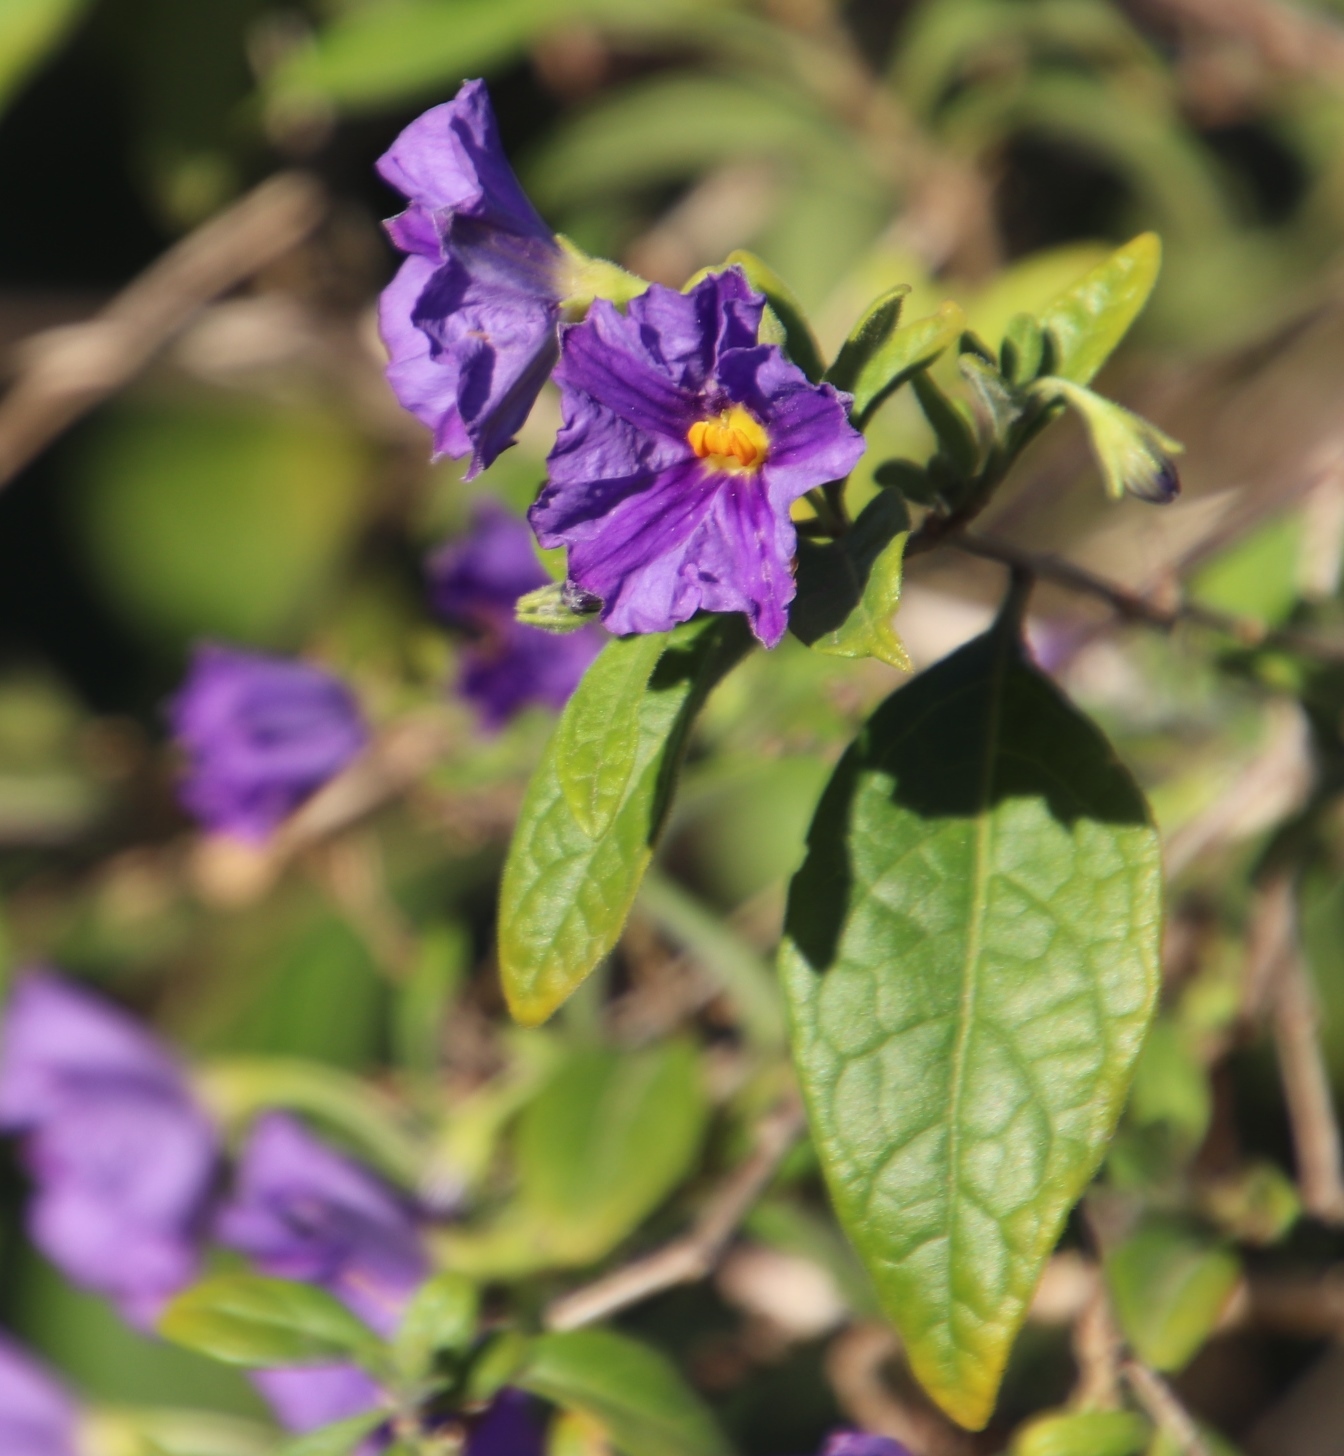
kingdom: Plantae
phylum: Tracheophyta
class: Magnoliopsida
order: Solanales
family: Solanaceae
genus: Lycianthes
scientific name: Lycianthes rantonnetii
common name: Blue potatobush
